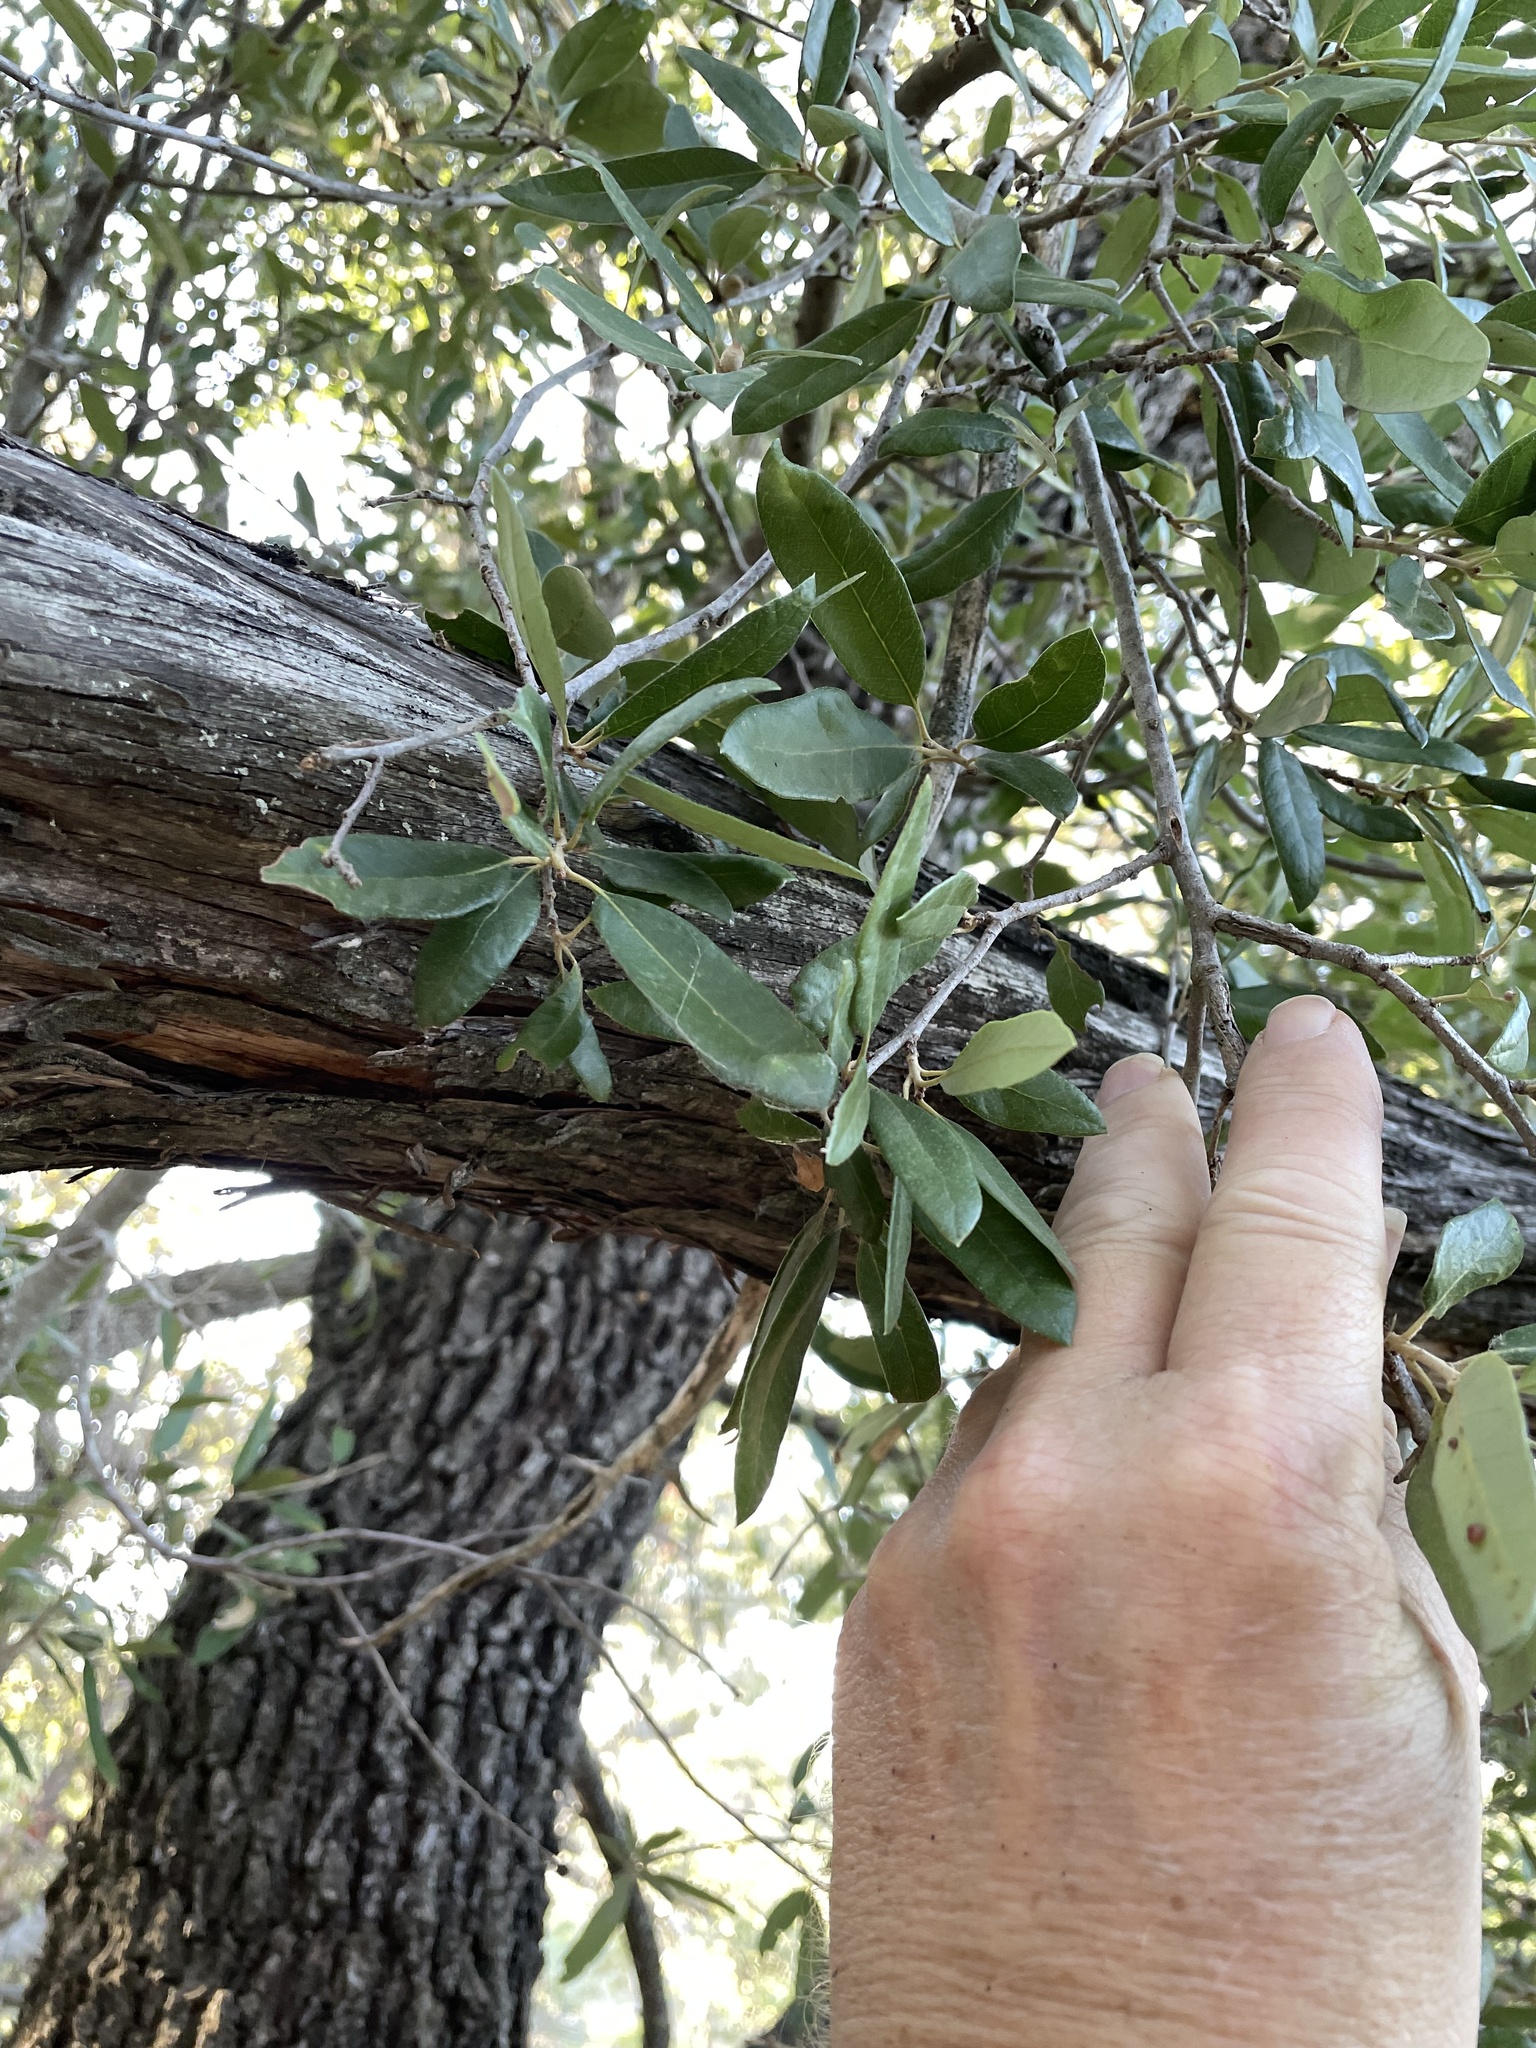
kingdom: Plantae
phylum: Tracheophyta
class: Magnoliopsida
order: Fagales
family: Fagaceae
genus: Quercus
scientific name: Quercus fusiformis
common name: Texas live oak
